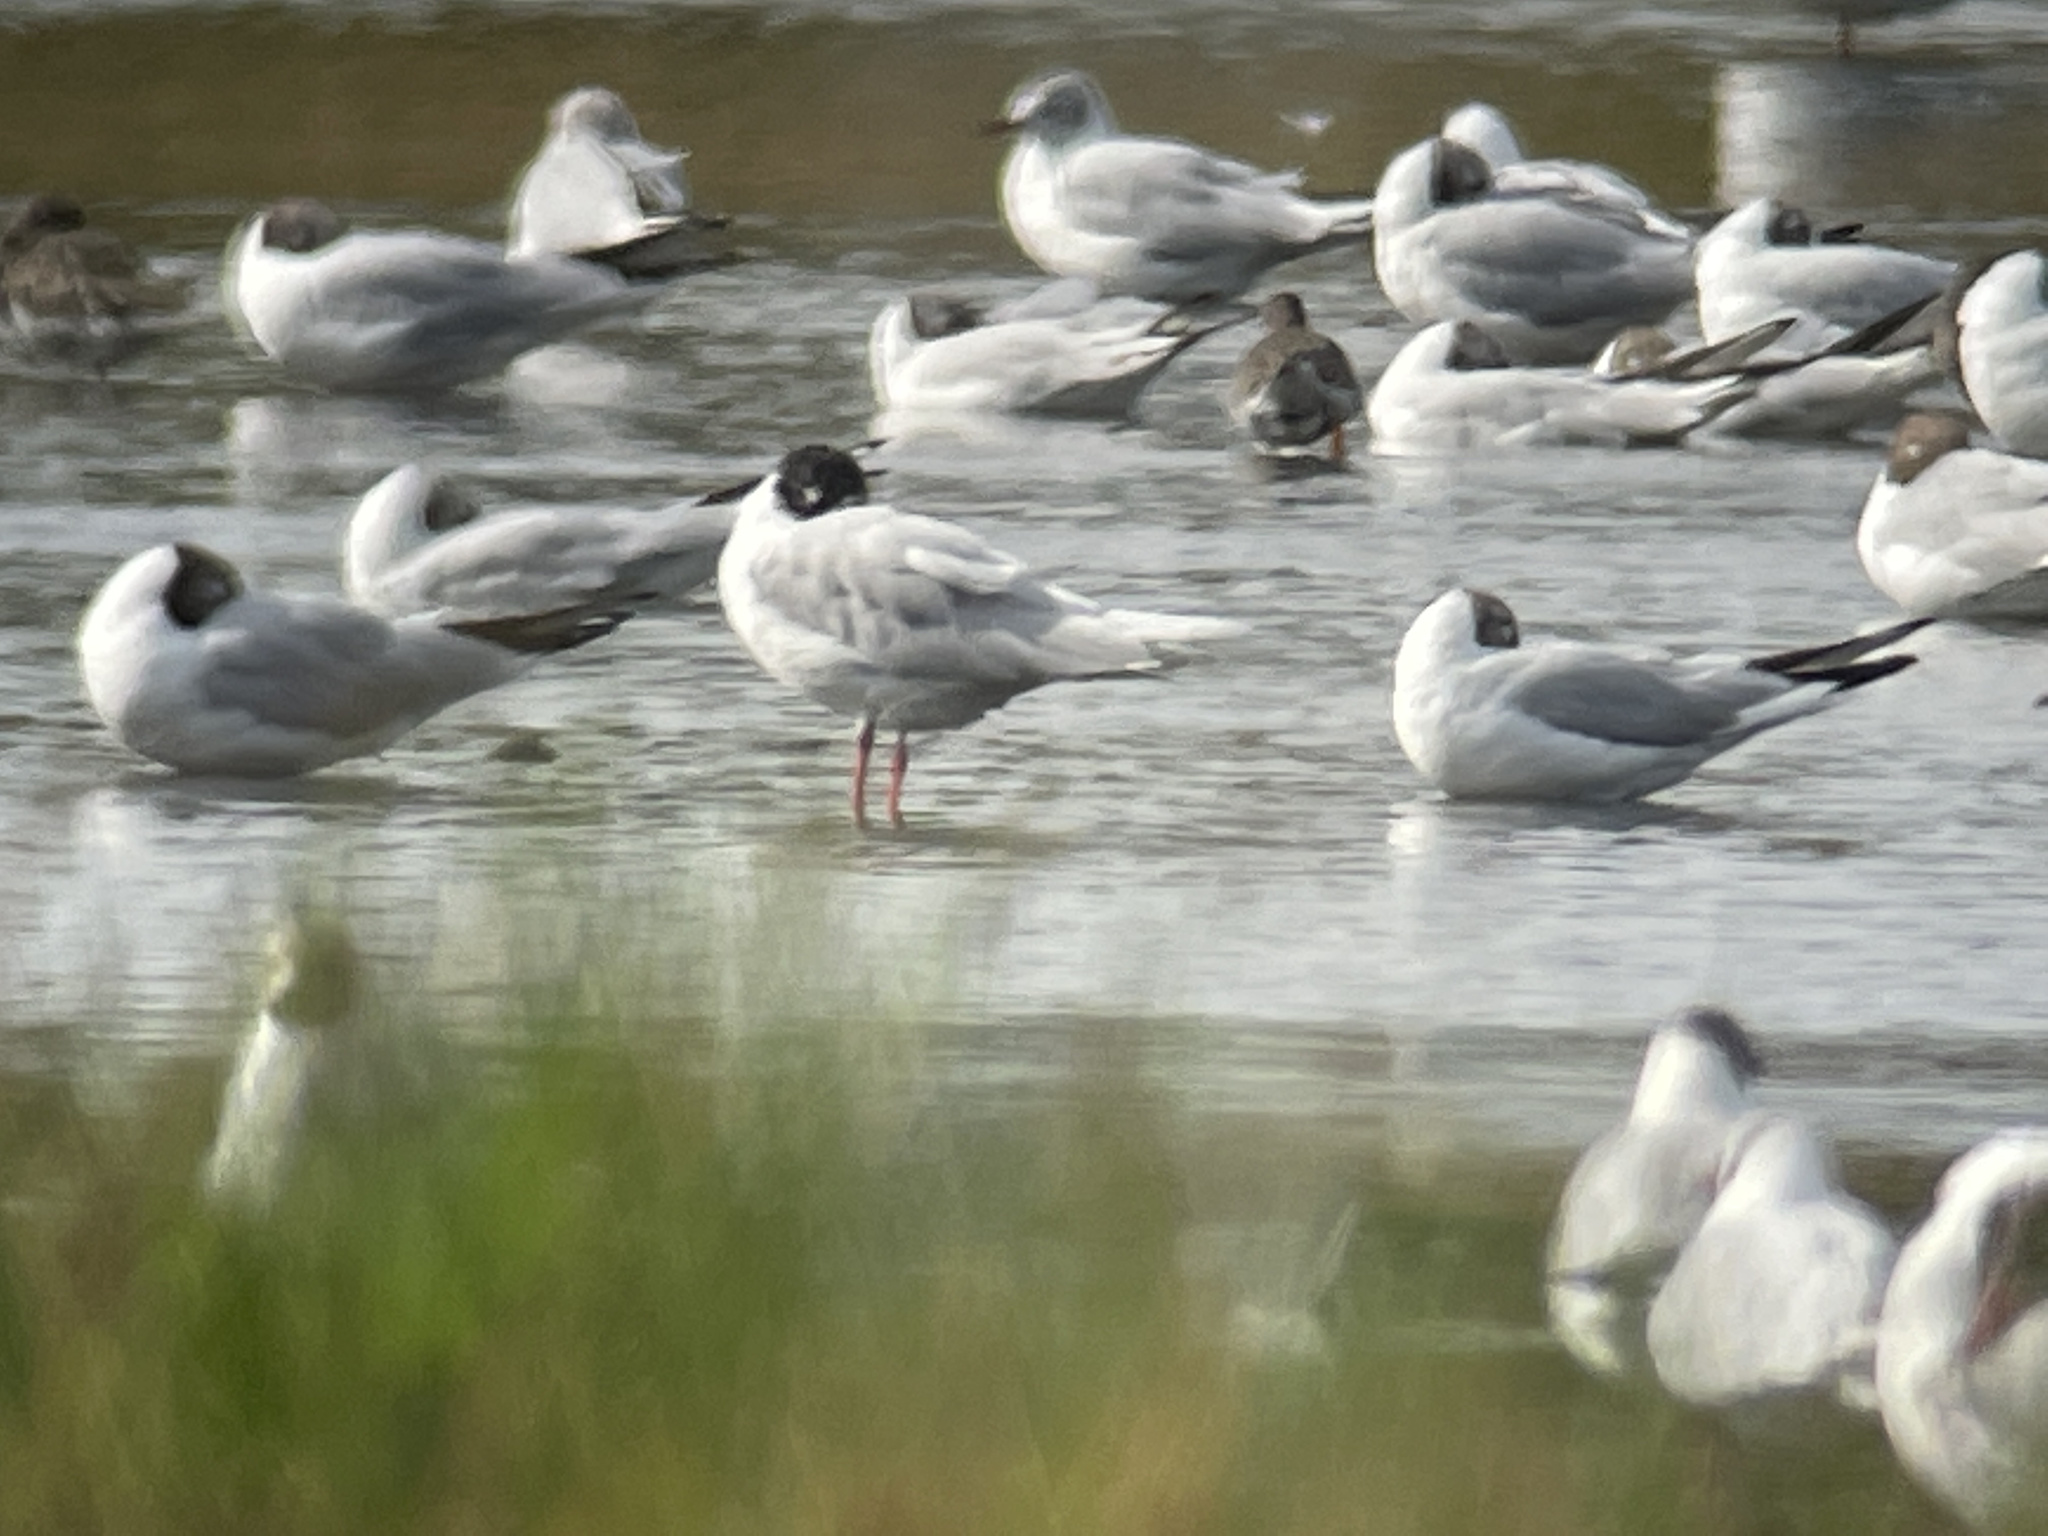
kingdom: Animalia
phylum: Chordata
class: Aves
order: Charadriiformes
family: Laridae
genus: Ichthyaetus
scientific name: Ichthyaetus melanocephalus
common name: Mediterranean gull
